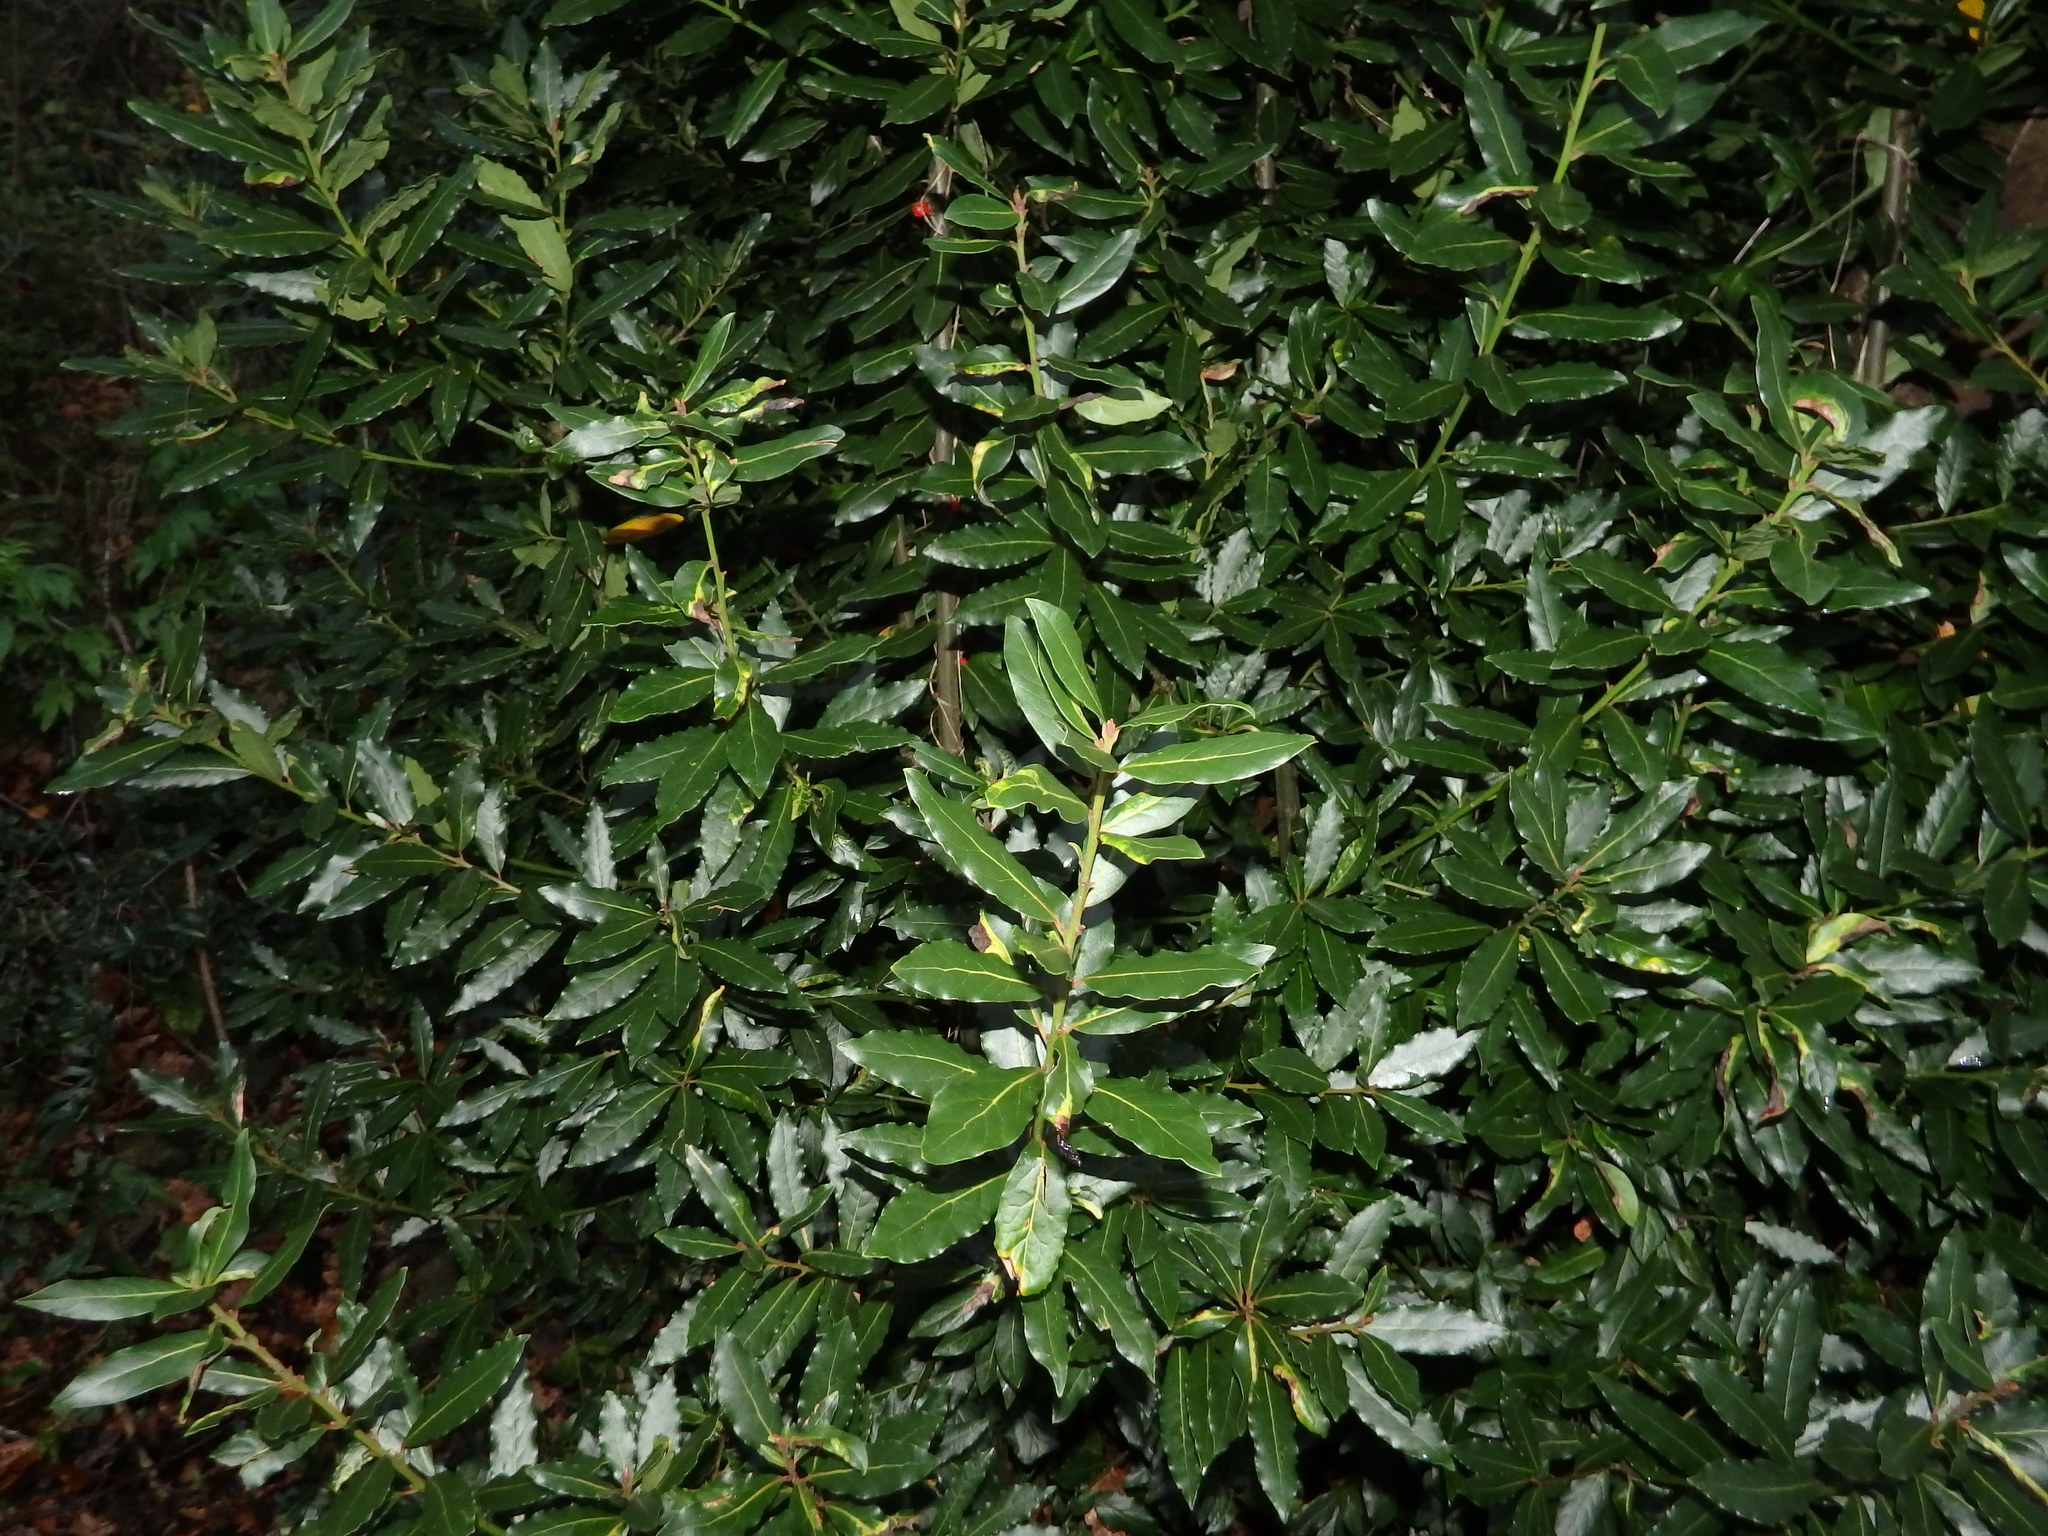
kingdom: Plantae
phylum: Tracheophyta
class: Magnoliopsida
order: Laurales
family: Lauraceae
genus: Laurus
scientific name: Laurus nobilis
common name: Bay
